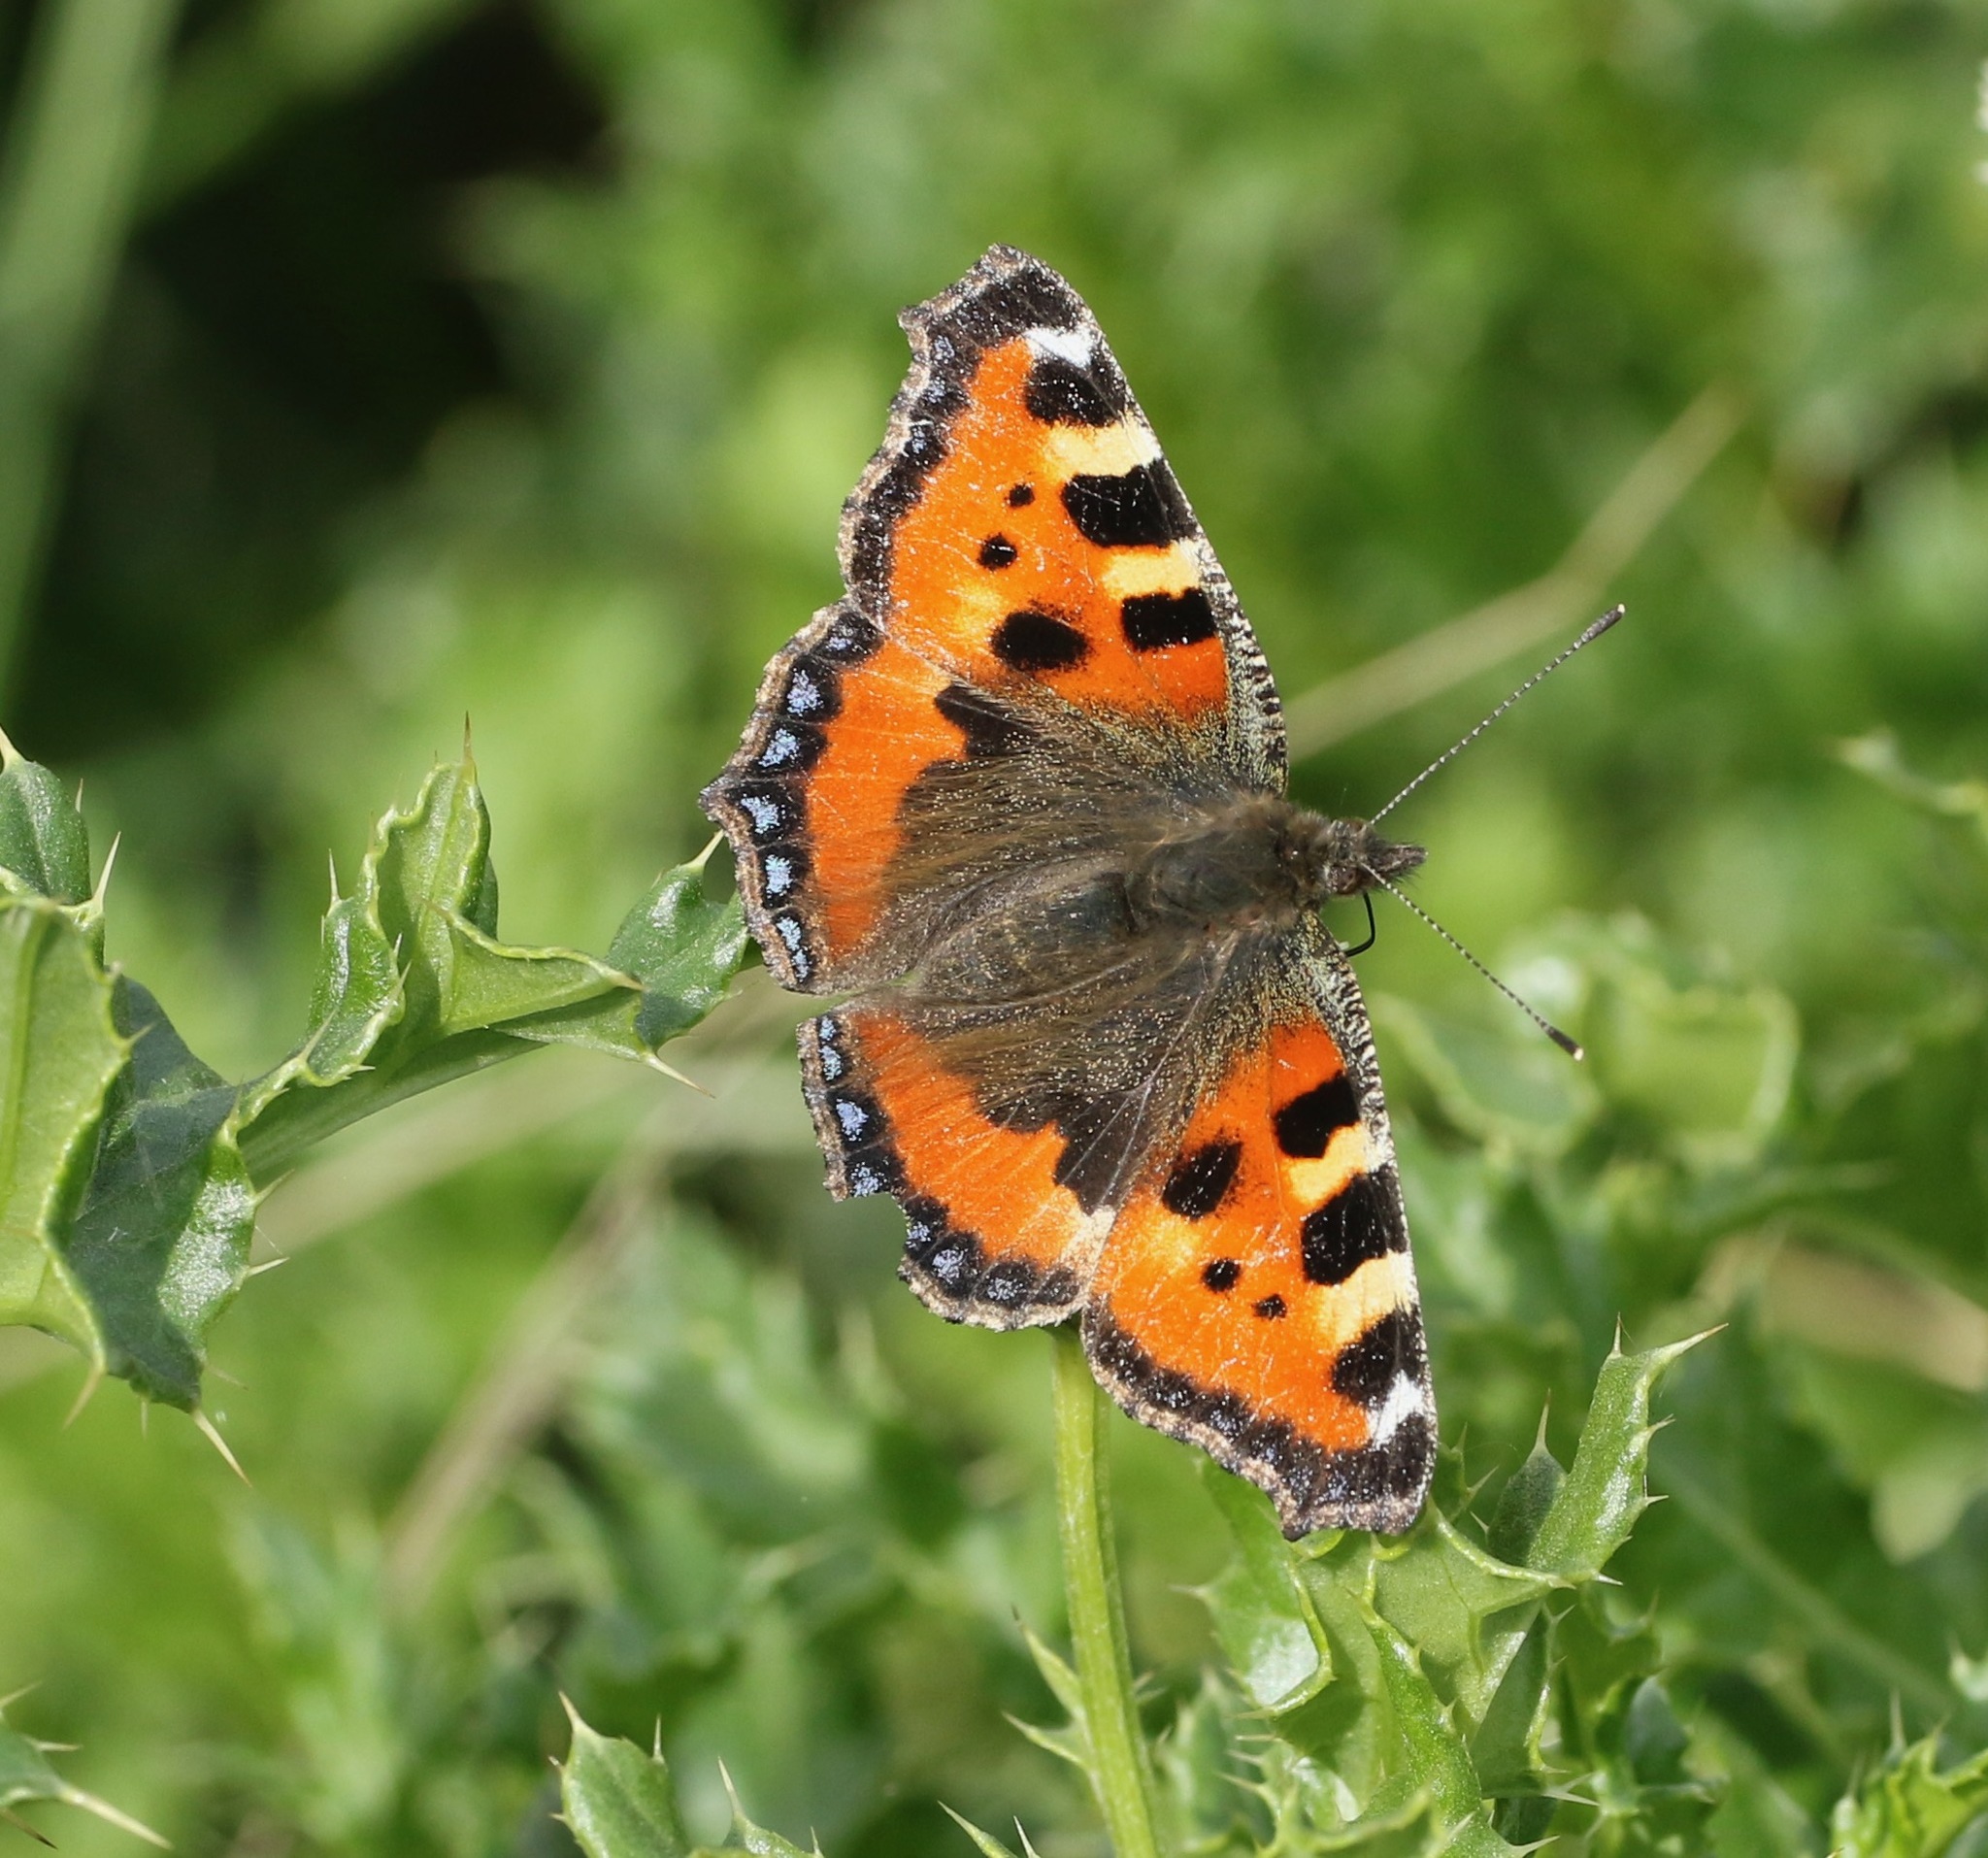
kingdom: Animalia
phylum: Arthropoda
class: Insecta
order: Lepidoptera
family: Nymphalidae
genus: Aglais
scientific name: Aglais urticae
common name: Small tortoiseshell
